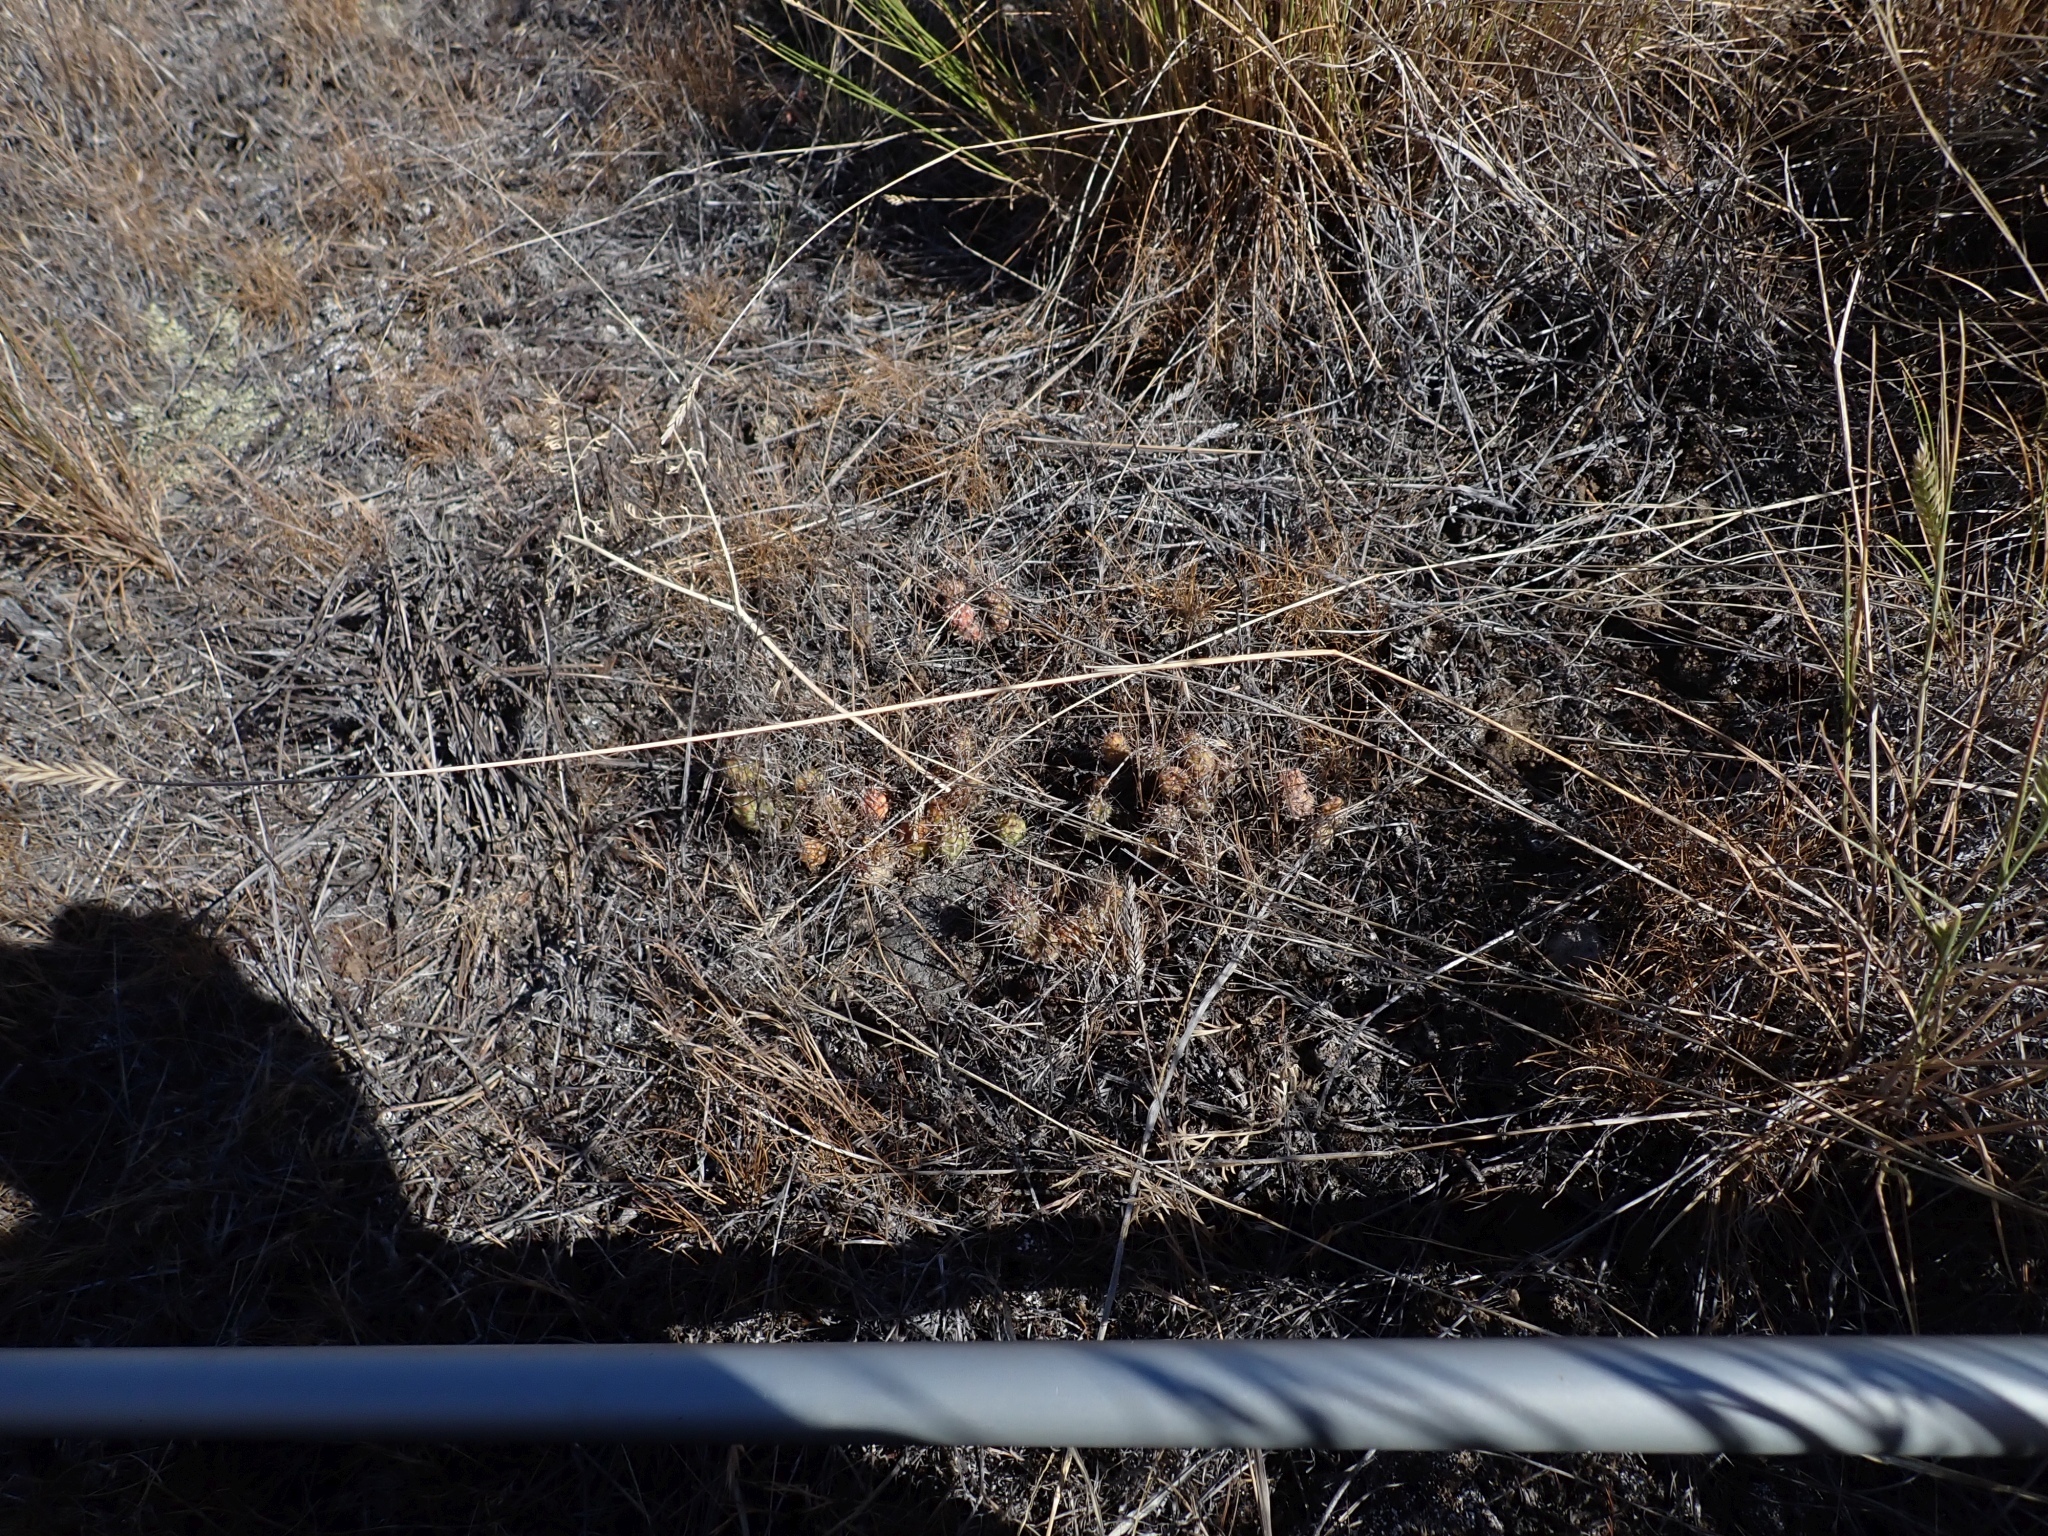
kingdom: Plantae
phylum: Tracheophyta
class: Magnoliopsida
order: Caryophyllales
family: Cactaceae
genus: Opuntia
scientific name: Opuntia fragilis
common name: Brittle cactus
